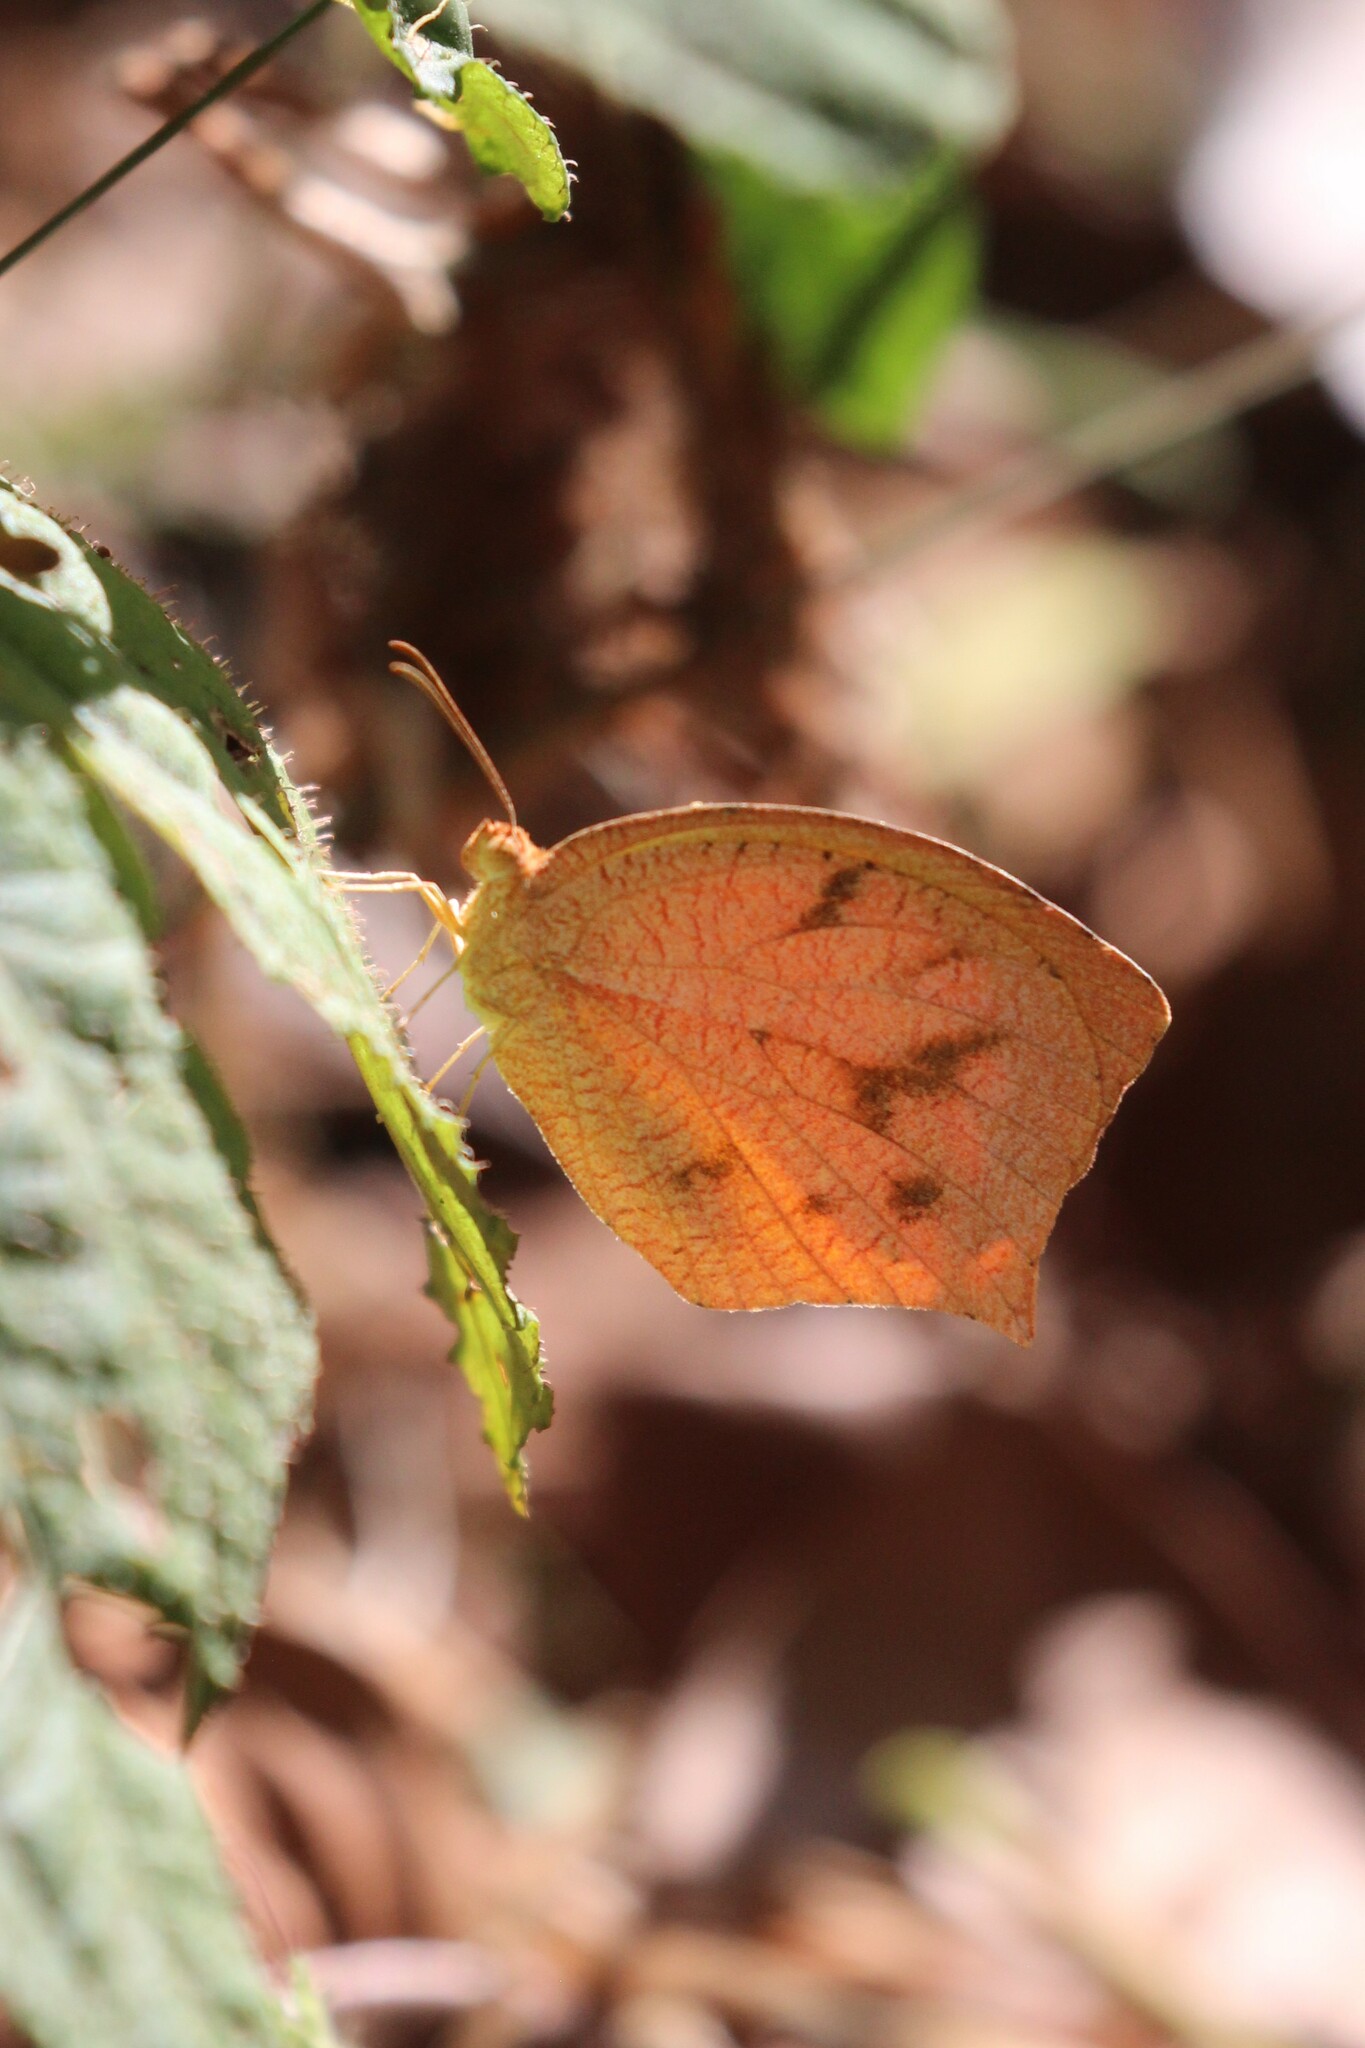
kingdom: Animalia
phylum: Arthropoda
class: Insecta
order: Lepidoptera
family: Pieridae
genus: Pyrisitia
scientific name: Pyrisitia proterpia
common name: Tailed orange
